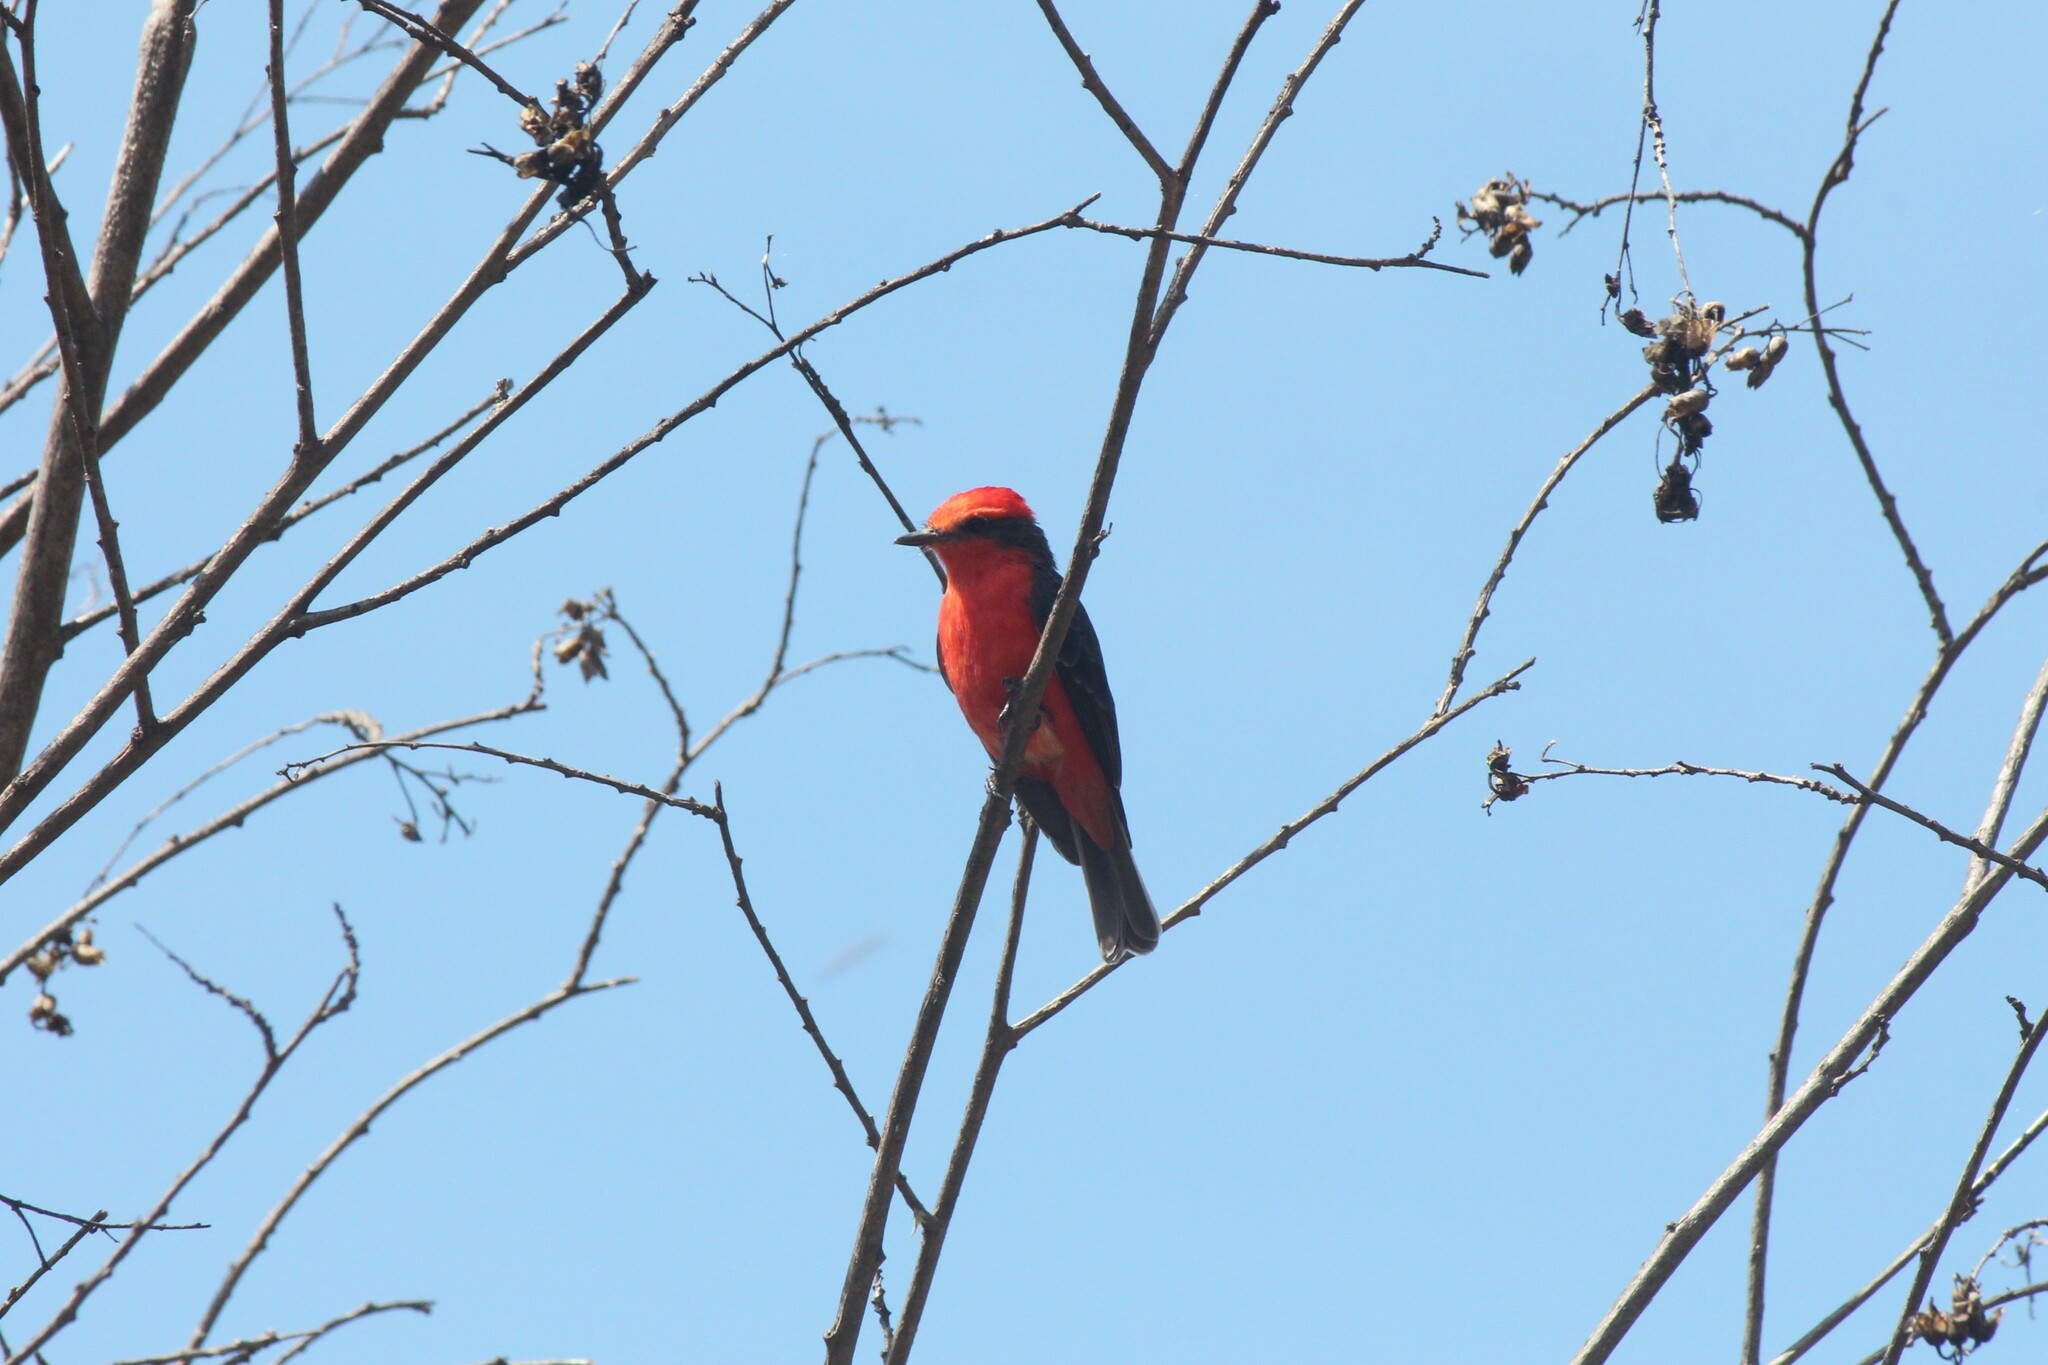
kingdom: Animalia
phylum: Chordata
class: Aves
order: Passeriformes
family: Tyrannidae
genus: Pyrocephalus
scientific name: Pyrocephalus rubinus
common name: Vermilion flycatcher
